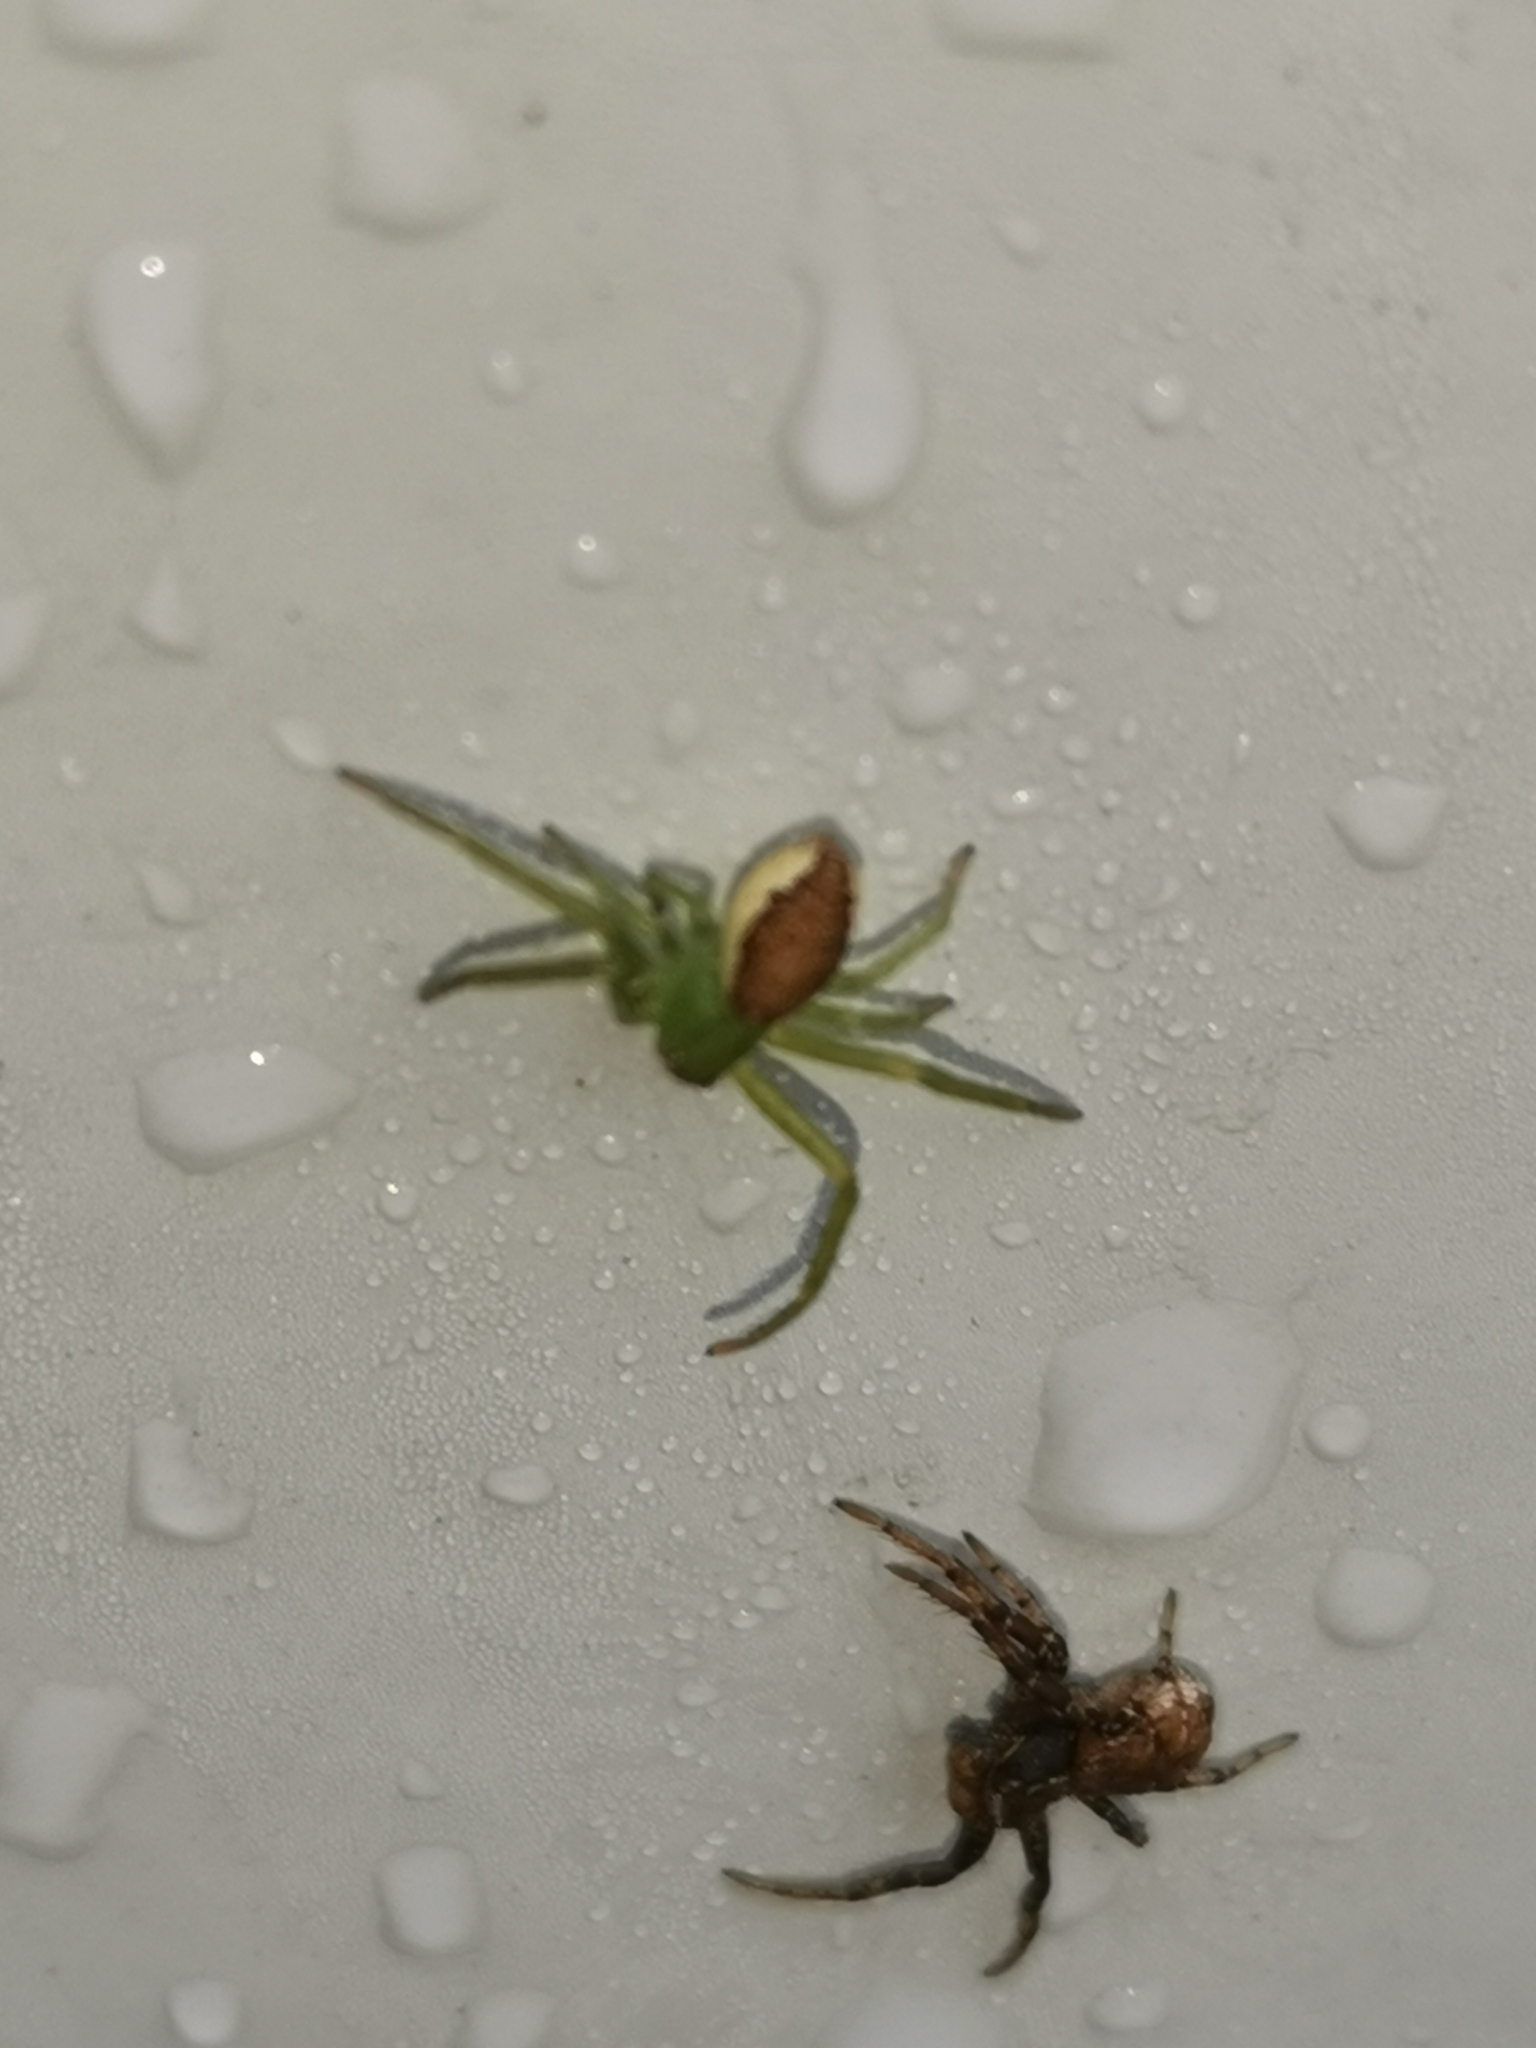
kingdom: Animalia
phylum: Arthropoda
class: Arachnida
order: Araneae
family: Thomisidae
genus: Diaea
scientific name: Diaea dorsata
